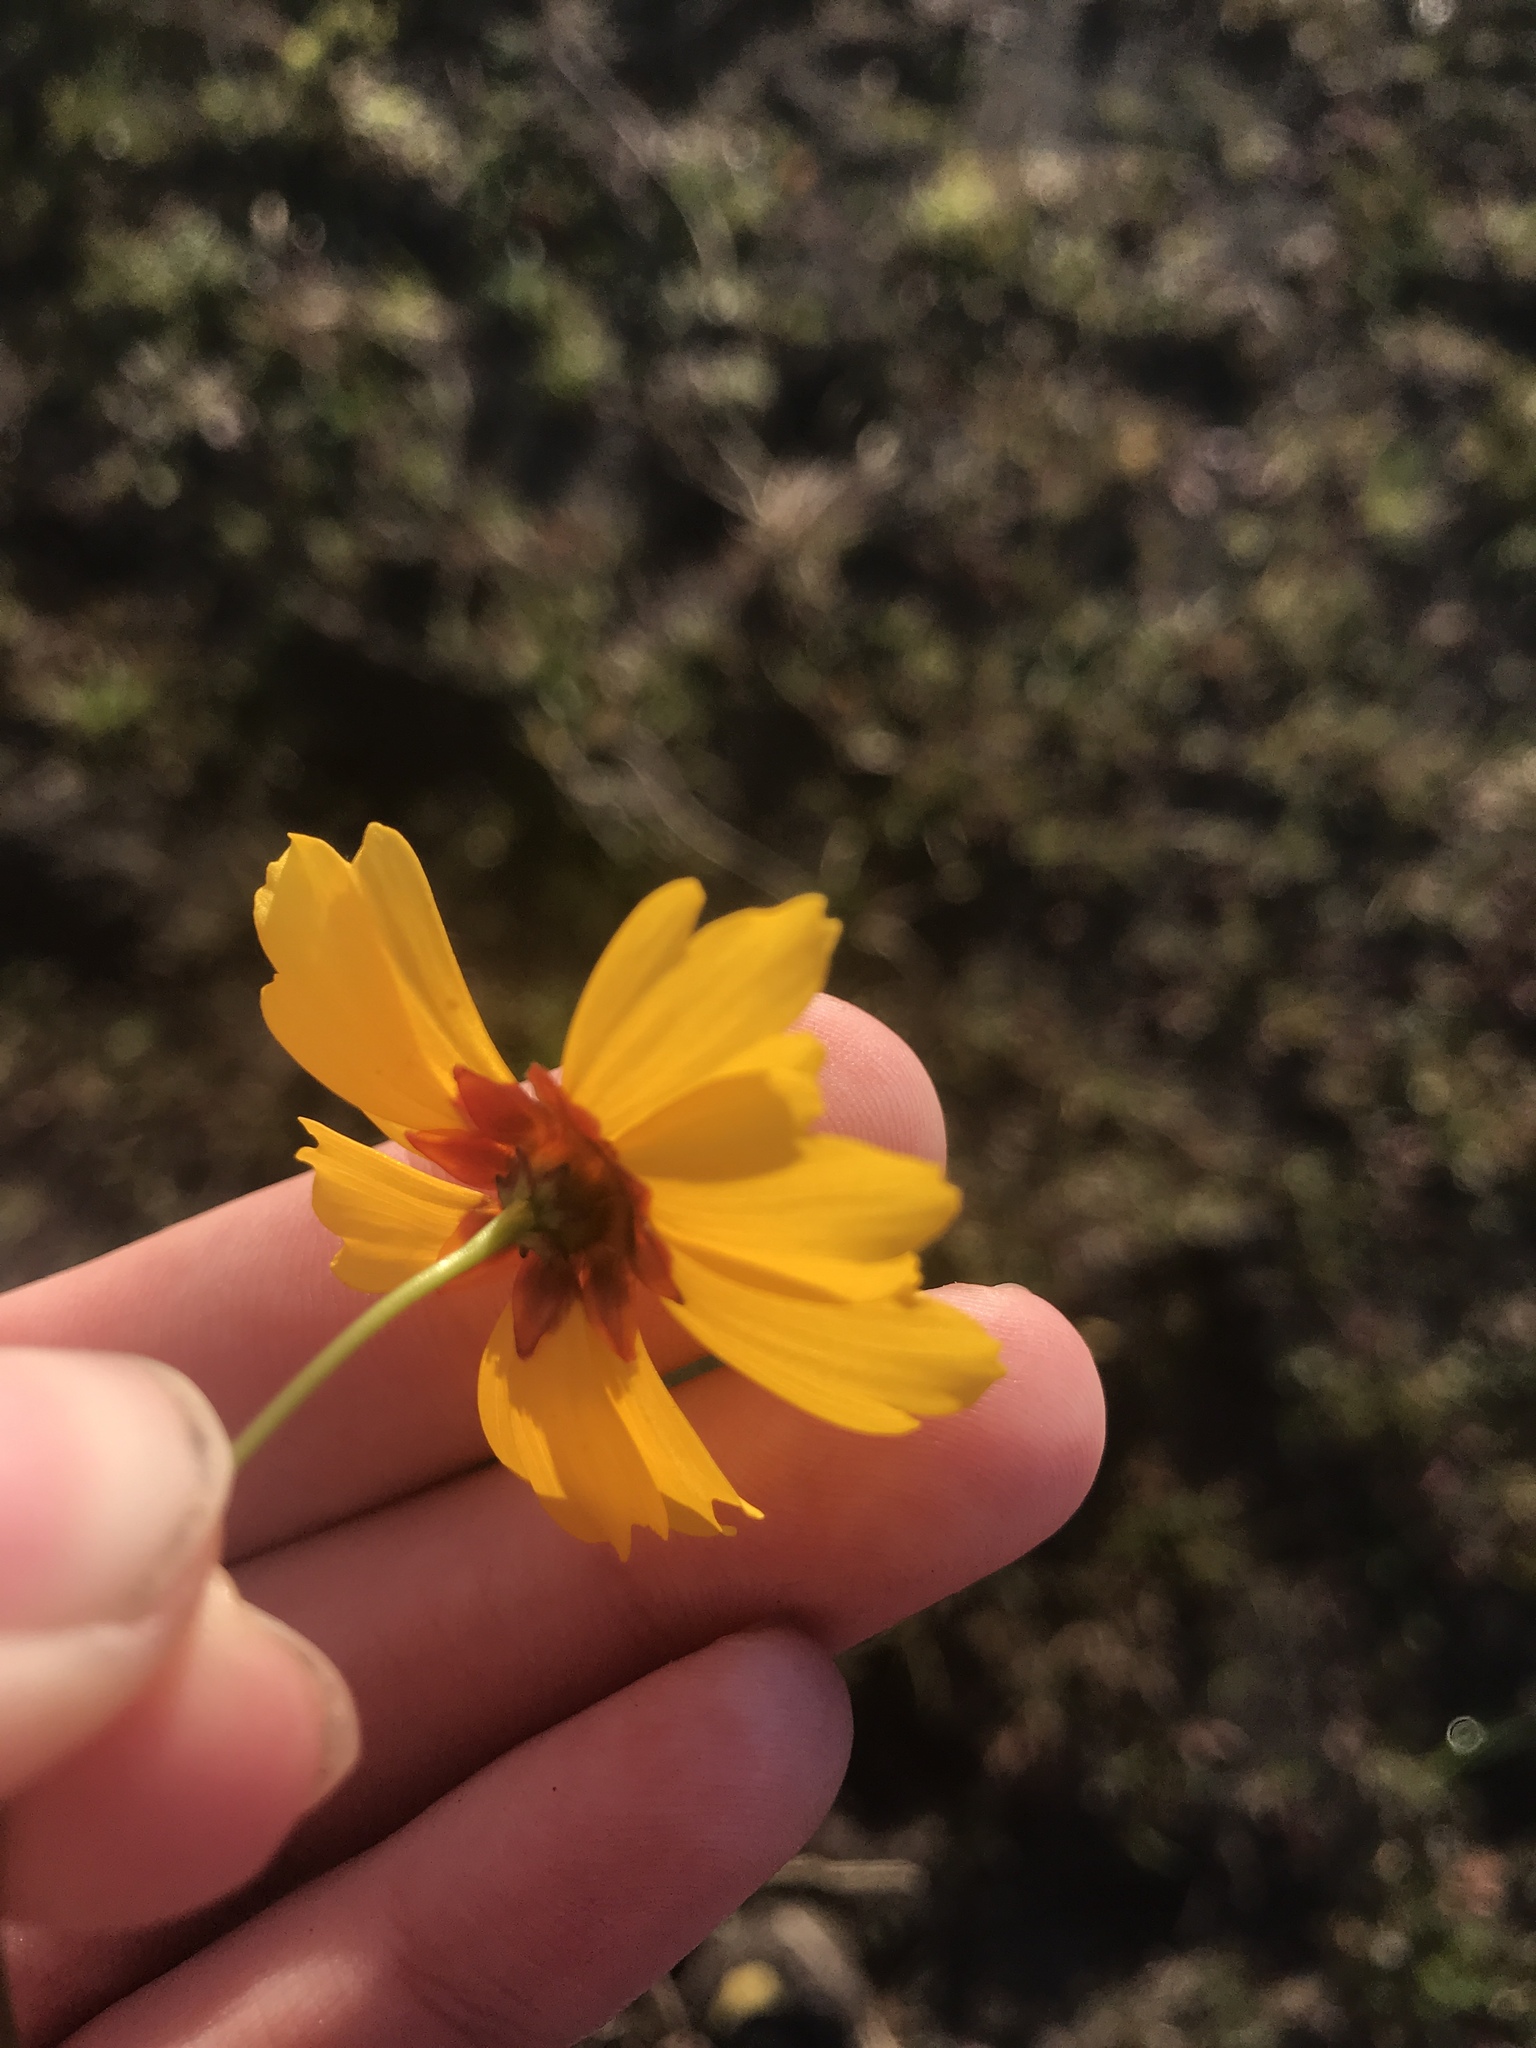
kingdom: Plantae
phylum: Tracheophyta
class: Magnoliopsida
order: Asterales
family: Asteraceae
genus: Coreopsis
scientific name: Coreopsis tinctoria
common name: Garden tickseed
